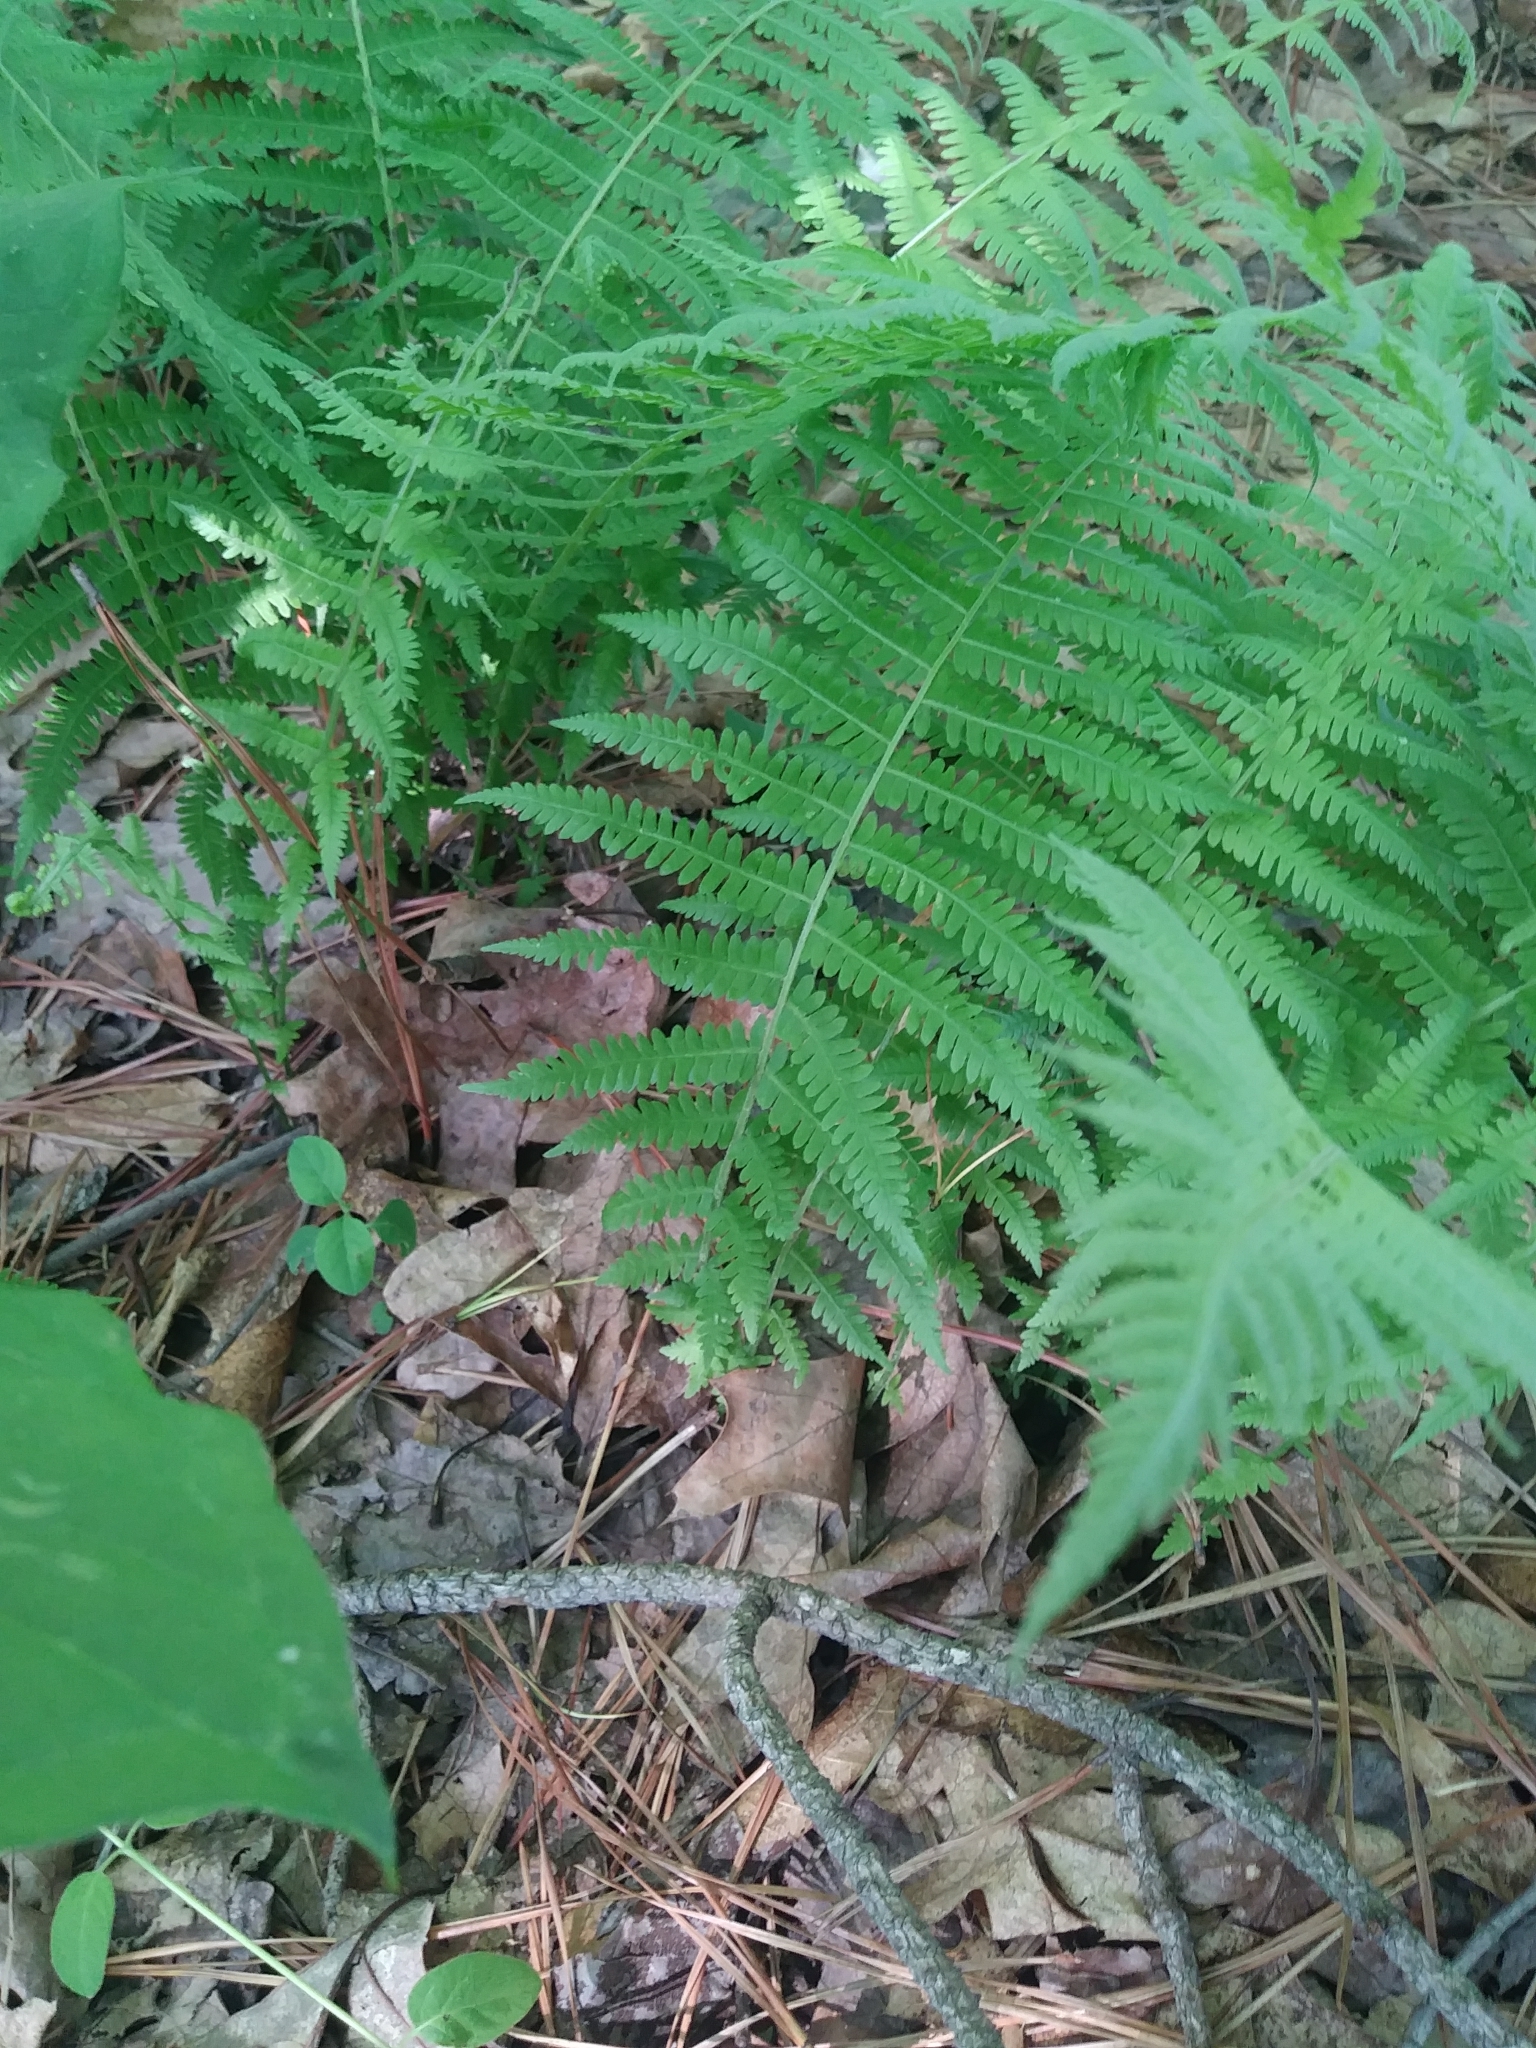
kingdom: Plantae
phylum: Tracheophyta
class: Polypodiopsida
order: Polypodiales
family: Thelypteridaceae
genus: Amauropelta
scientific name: Amauropelta noveboracensis
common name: New york fern
